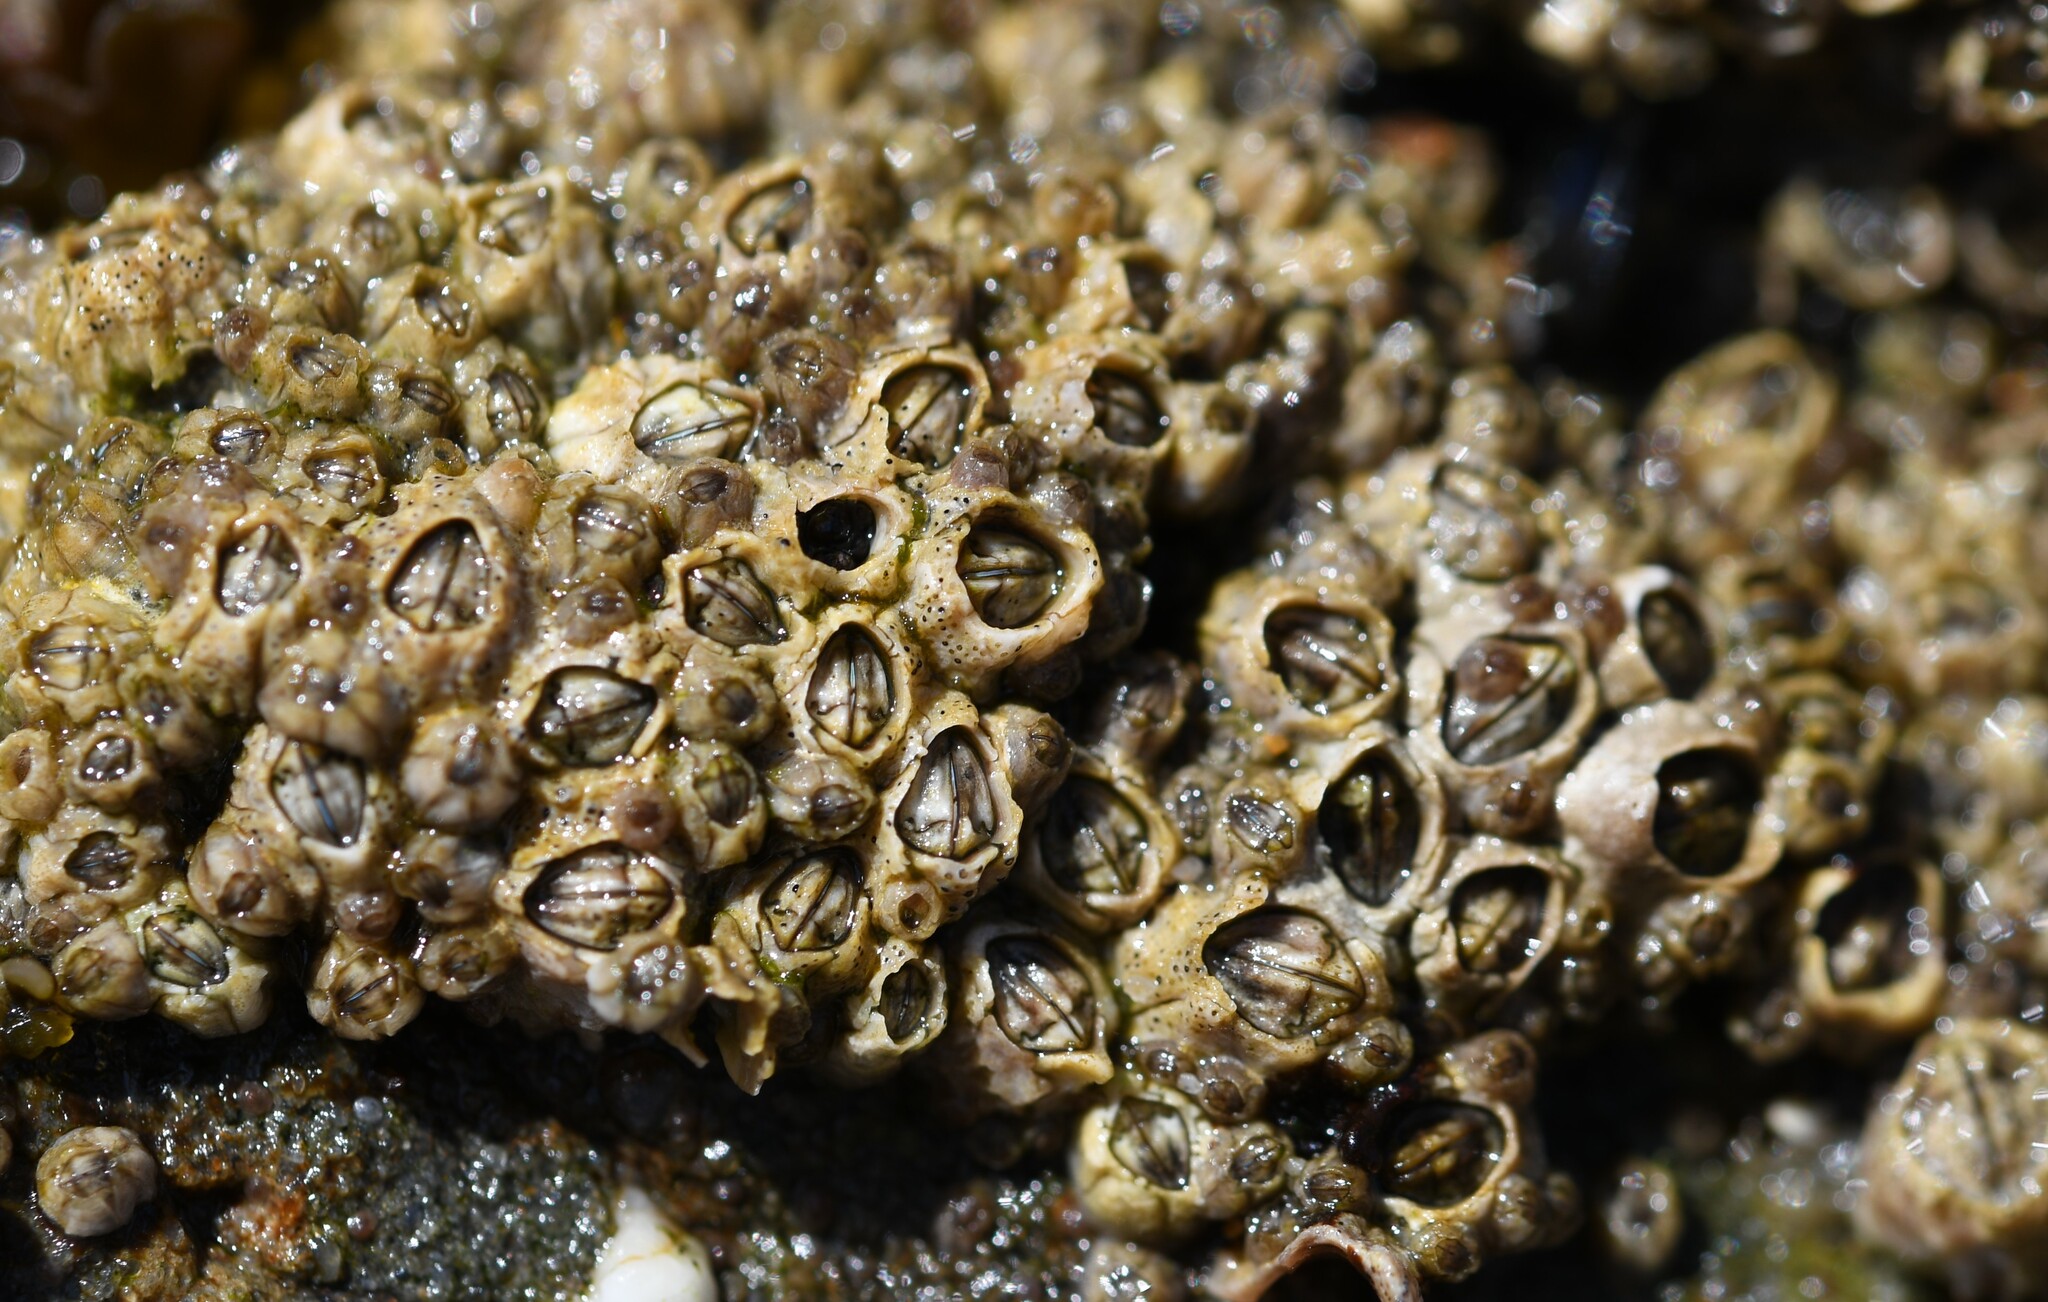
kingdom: Animalia
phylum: Arthropoda
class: Maxillopoda
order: Sessilia
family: Chthamalidae
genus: Chthamalus
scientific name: Chthamalus montagui
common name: Montagu's stellate barnacle
